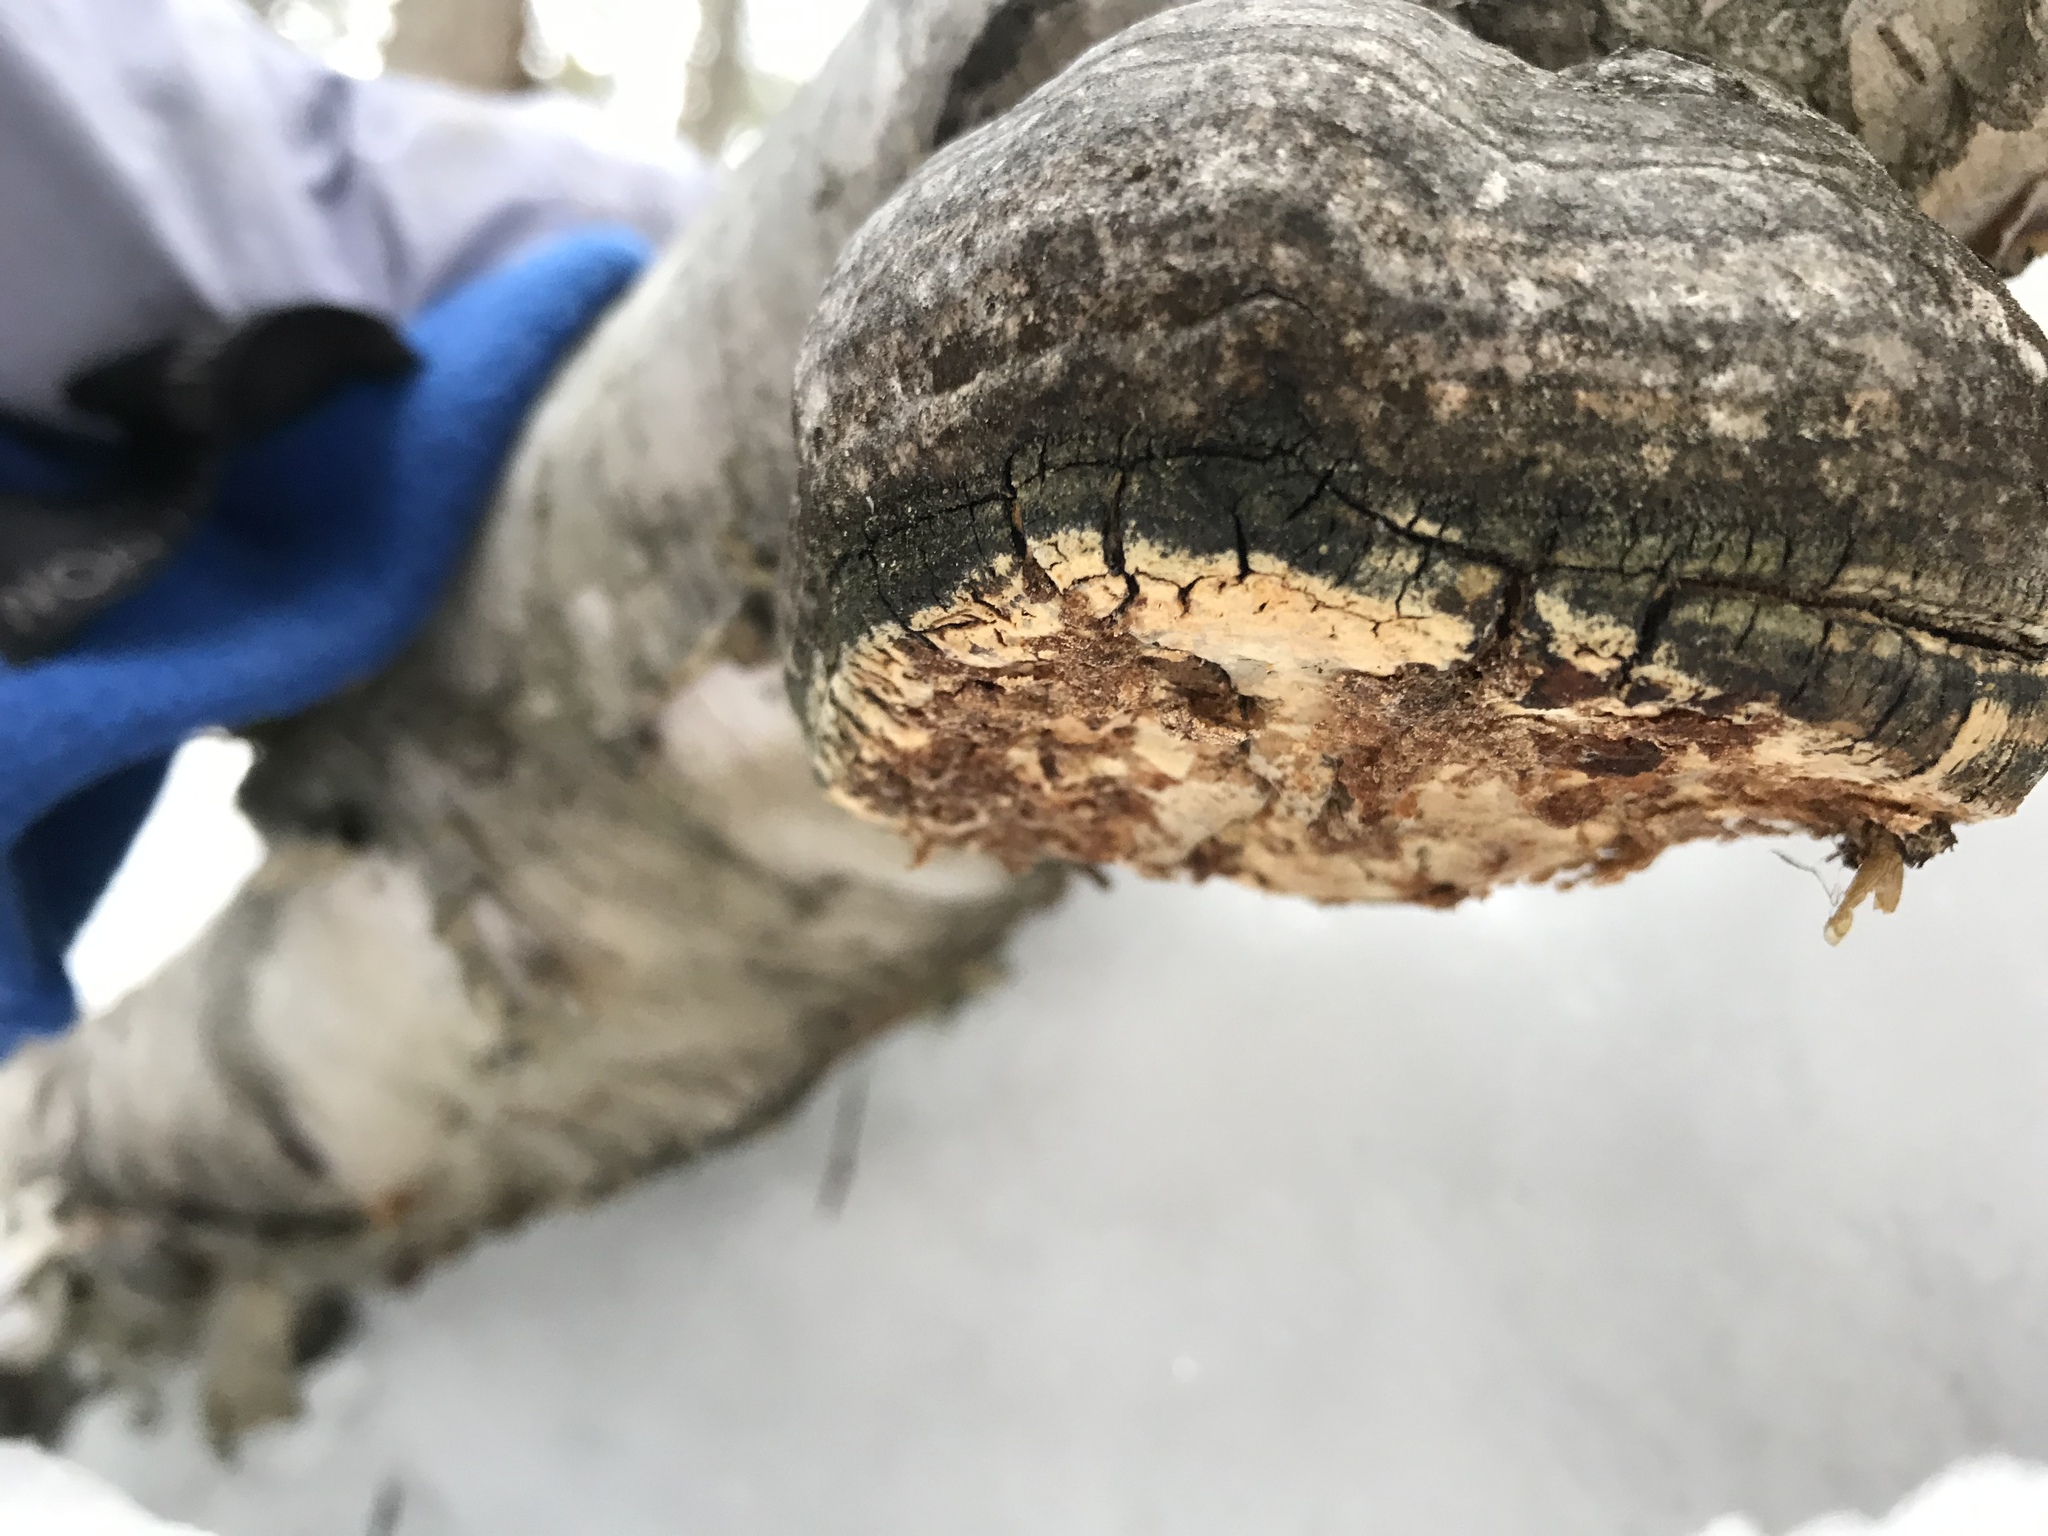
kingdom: Fungi
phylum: Basidiomycota
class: Agaricomycetes
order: Polyporales
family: Fomitopsidaceae
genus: Fomitopsis
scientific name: Fomitopsis betulina
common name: Birch polypore
